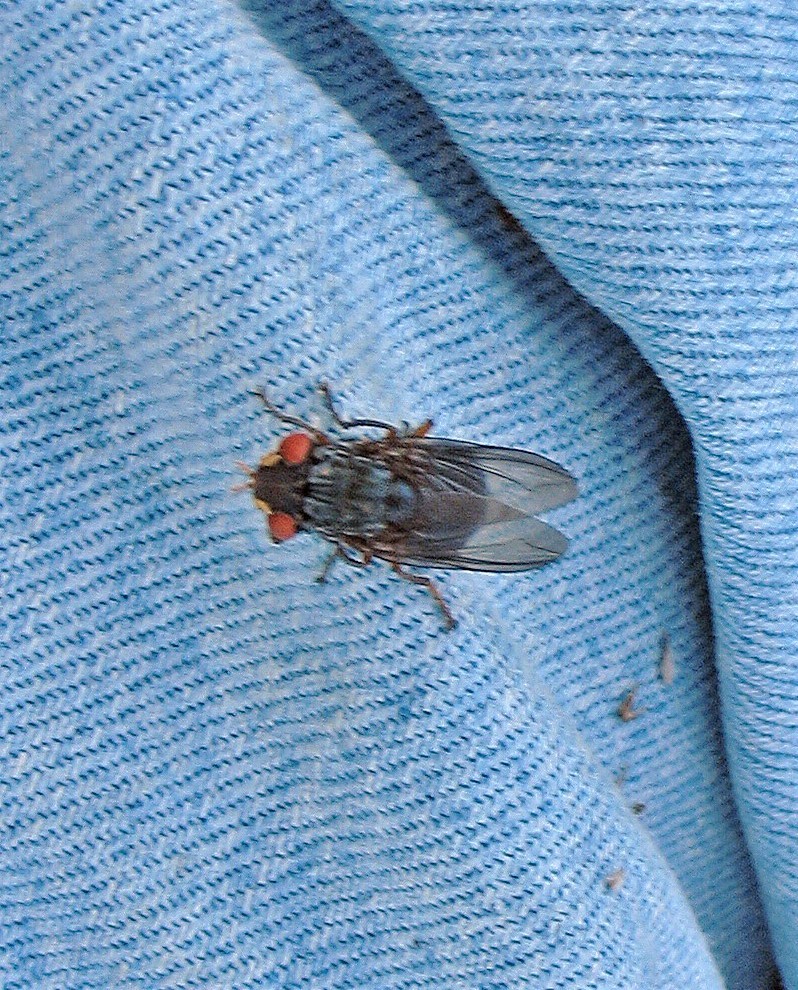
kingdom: Animalia
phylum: Arthropoda
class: Insecta
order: Diptera
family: Oestridae
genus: Dermatobia
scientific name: Dermatobia hominis
